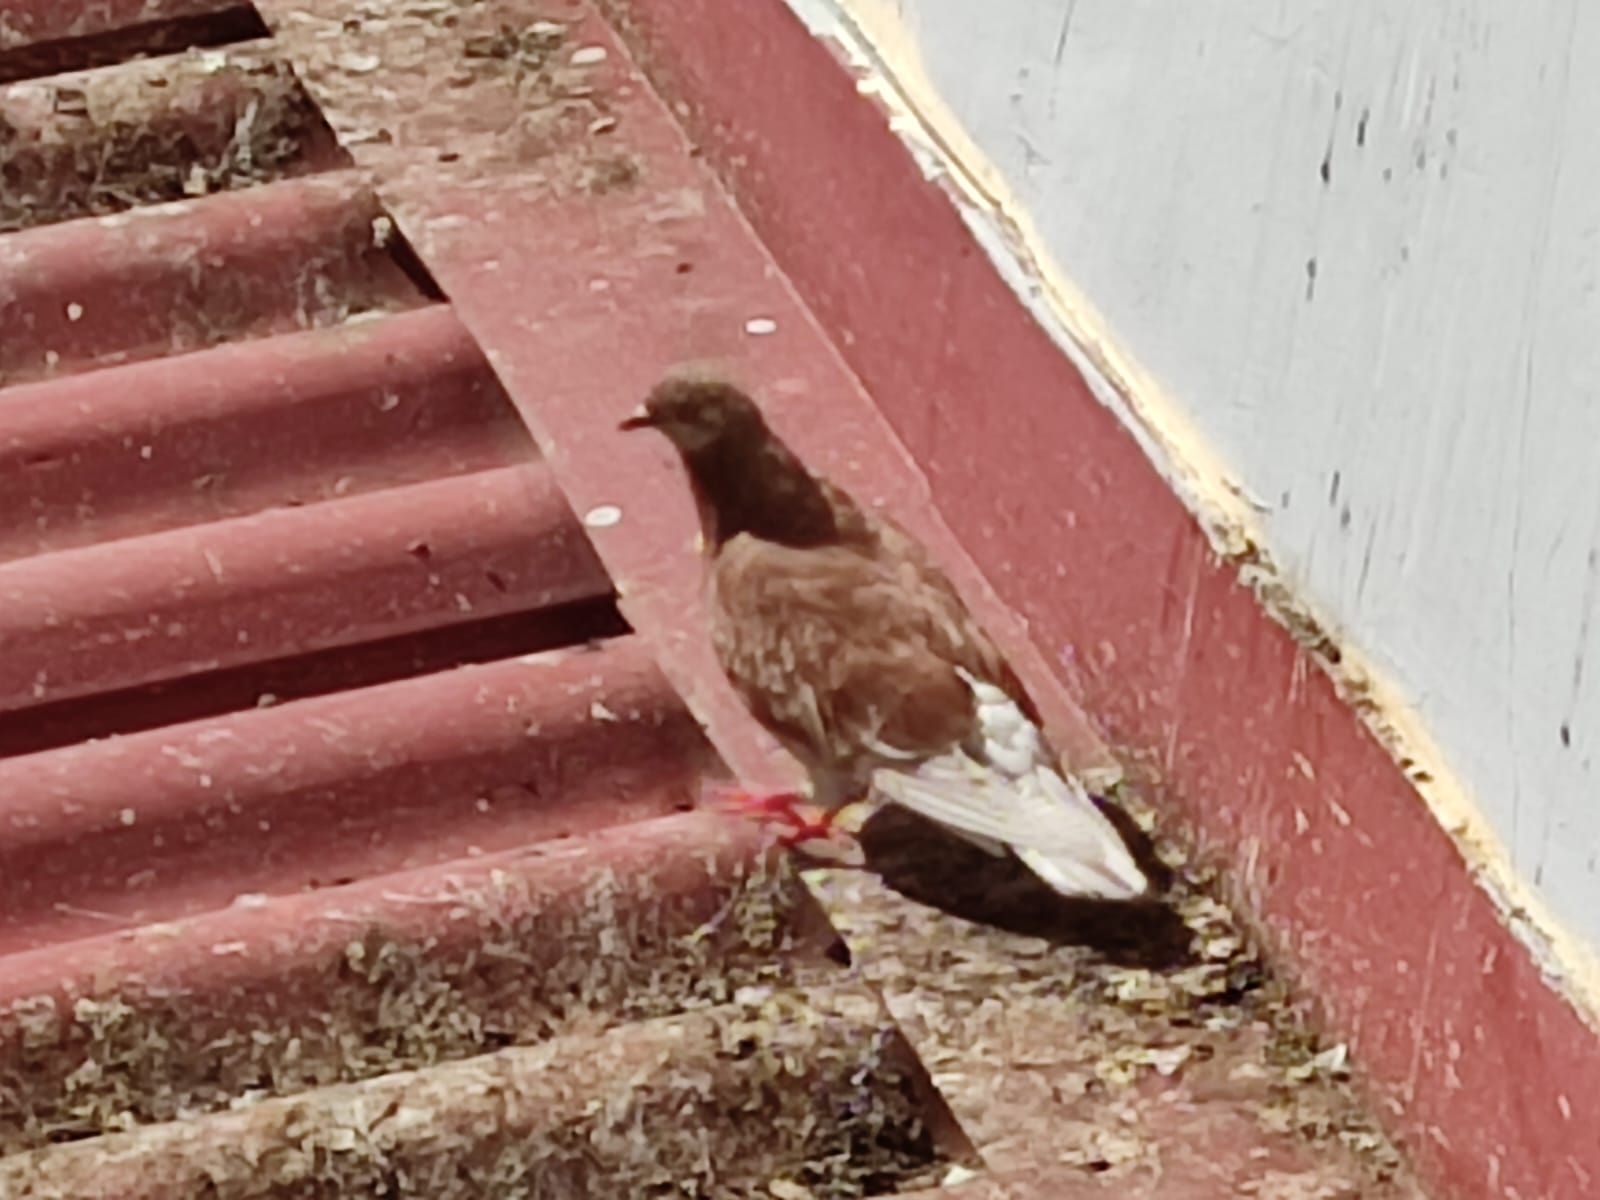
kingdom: Animalia
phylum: Chordata
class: Aves
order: Columbiformes
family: Columbidae
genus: Columba
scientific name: Columba livia
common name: Rock pigeon
